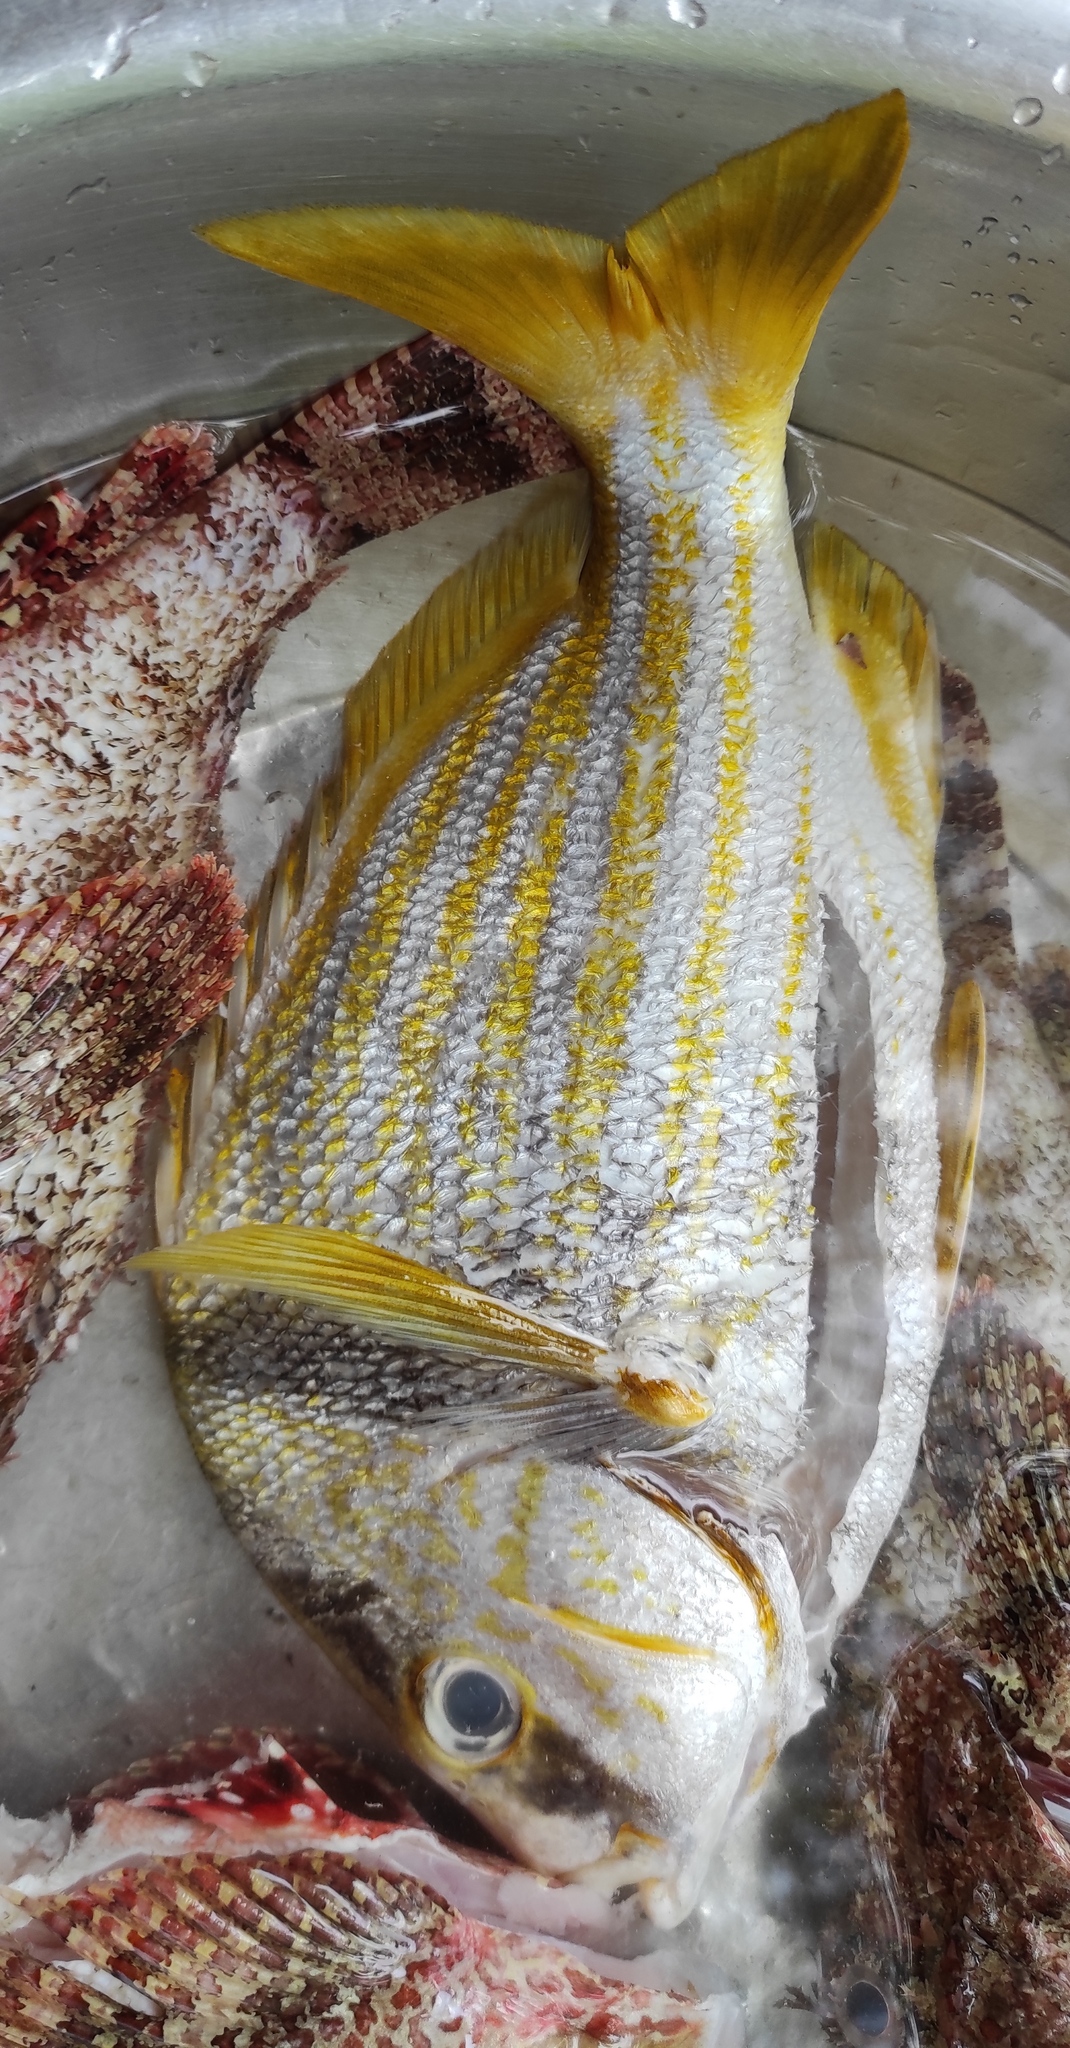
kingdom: Animalia
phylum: Chordata
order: Perciformes
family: Haemulidae
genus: Anisotremus
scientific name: Anisotremus virginicus
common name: Porkfish
